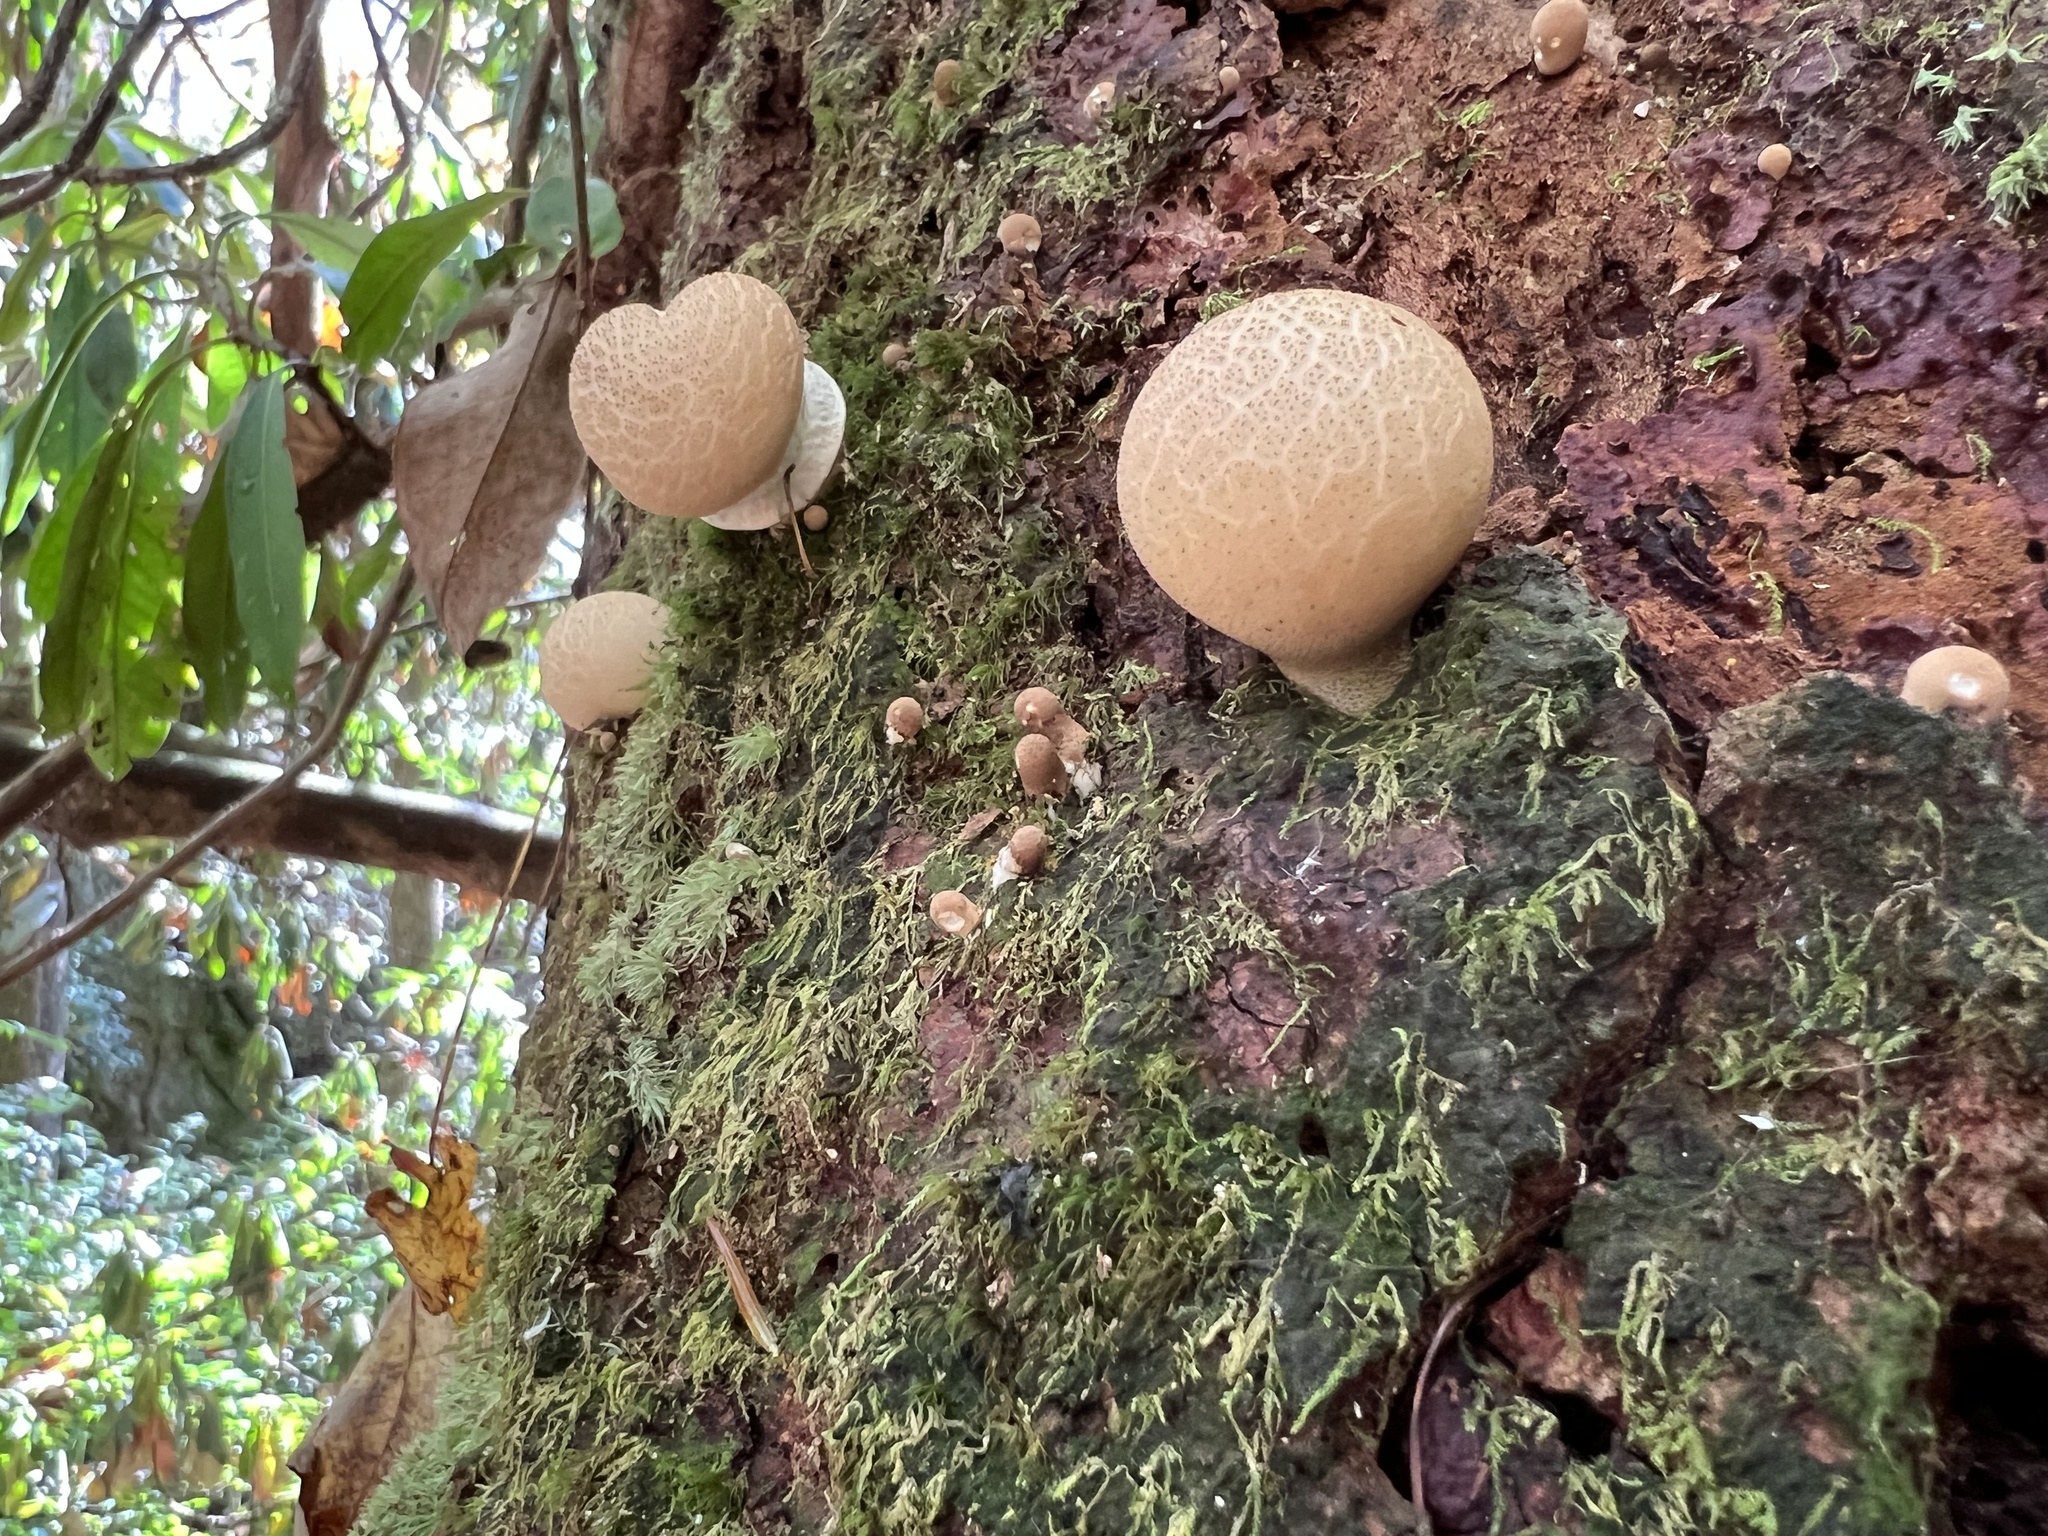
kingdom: Fungi
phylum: Basidiomycota
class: Agaricomycetes
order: Agaricales
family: Lycoperdaceae
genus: Apioperdon
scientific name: Apioperdon pyriforme
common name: Pear-shaped puffball
